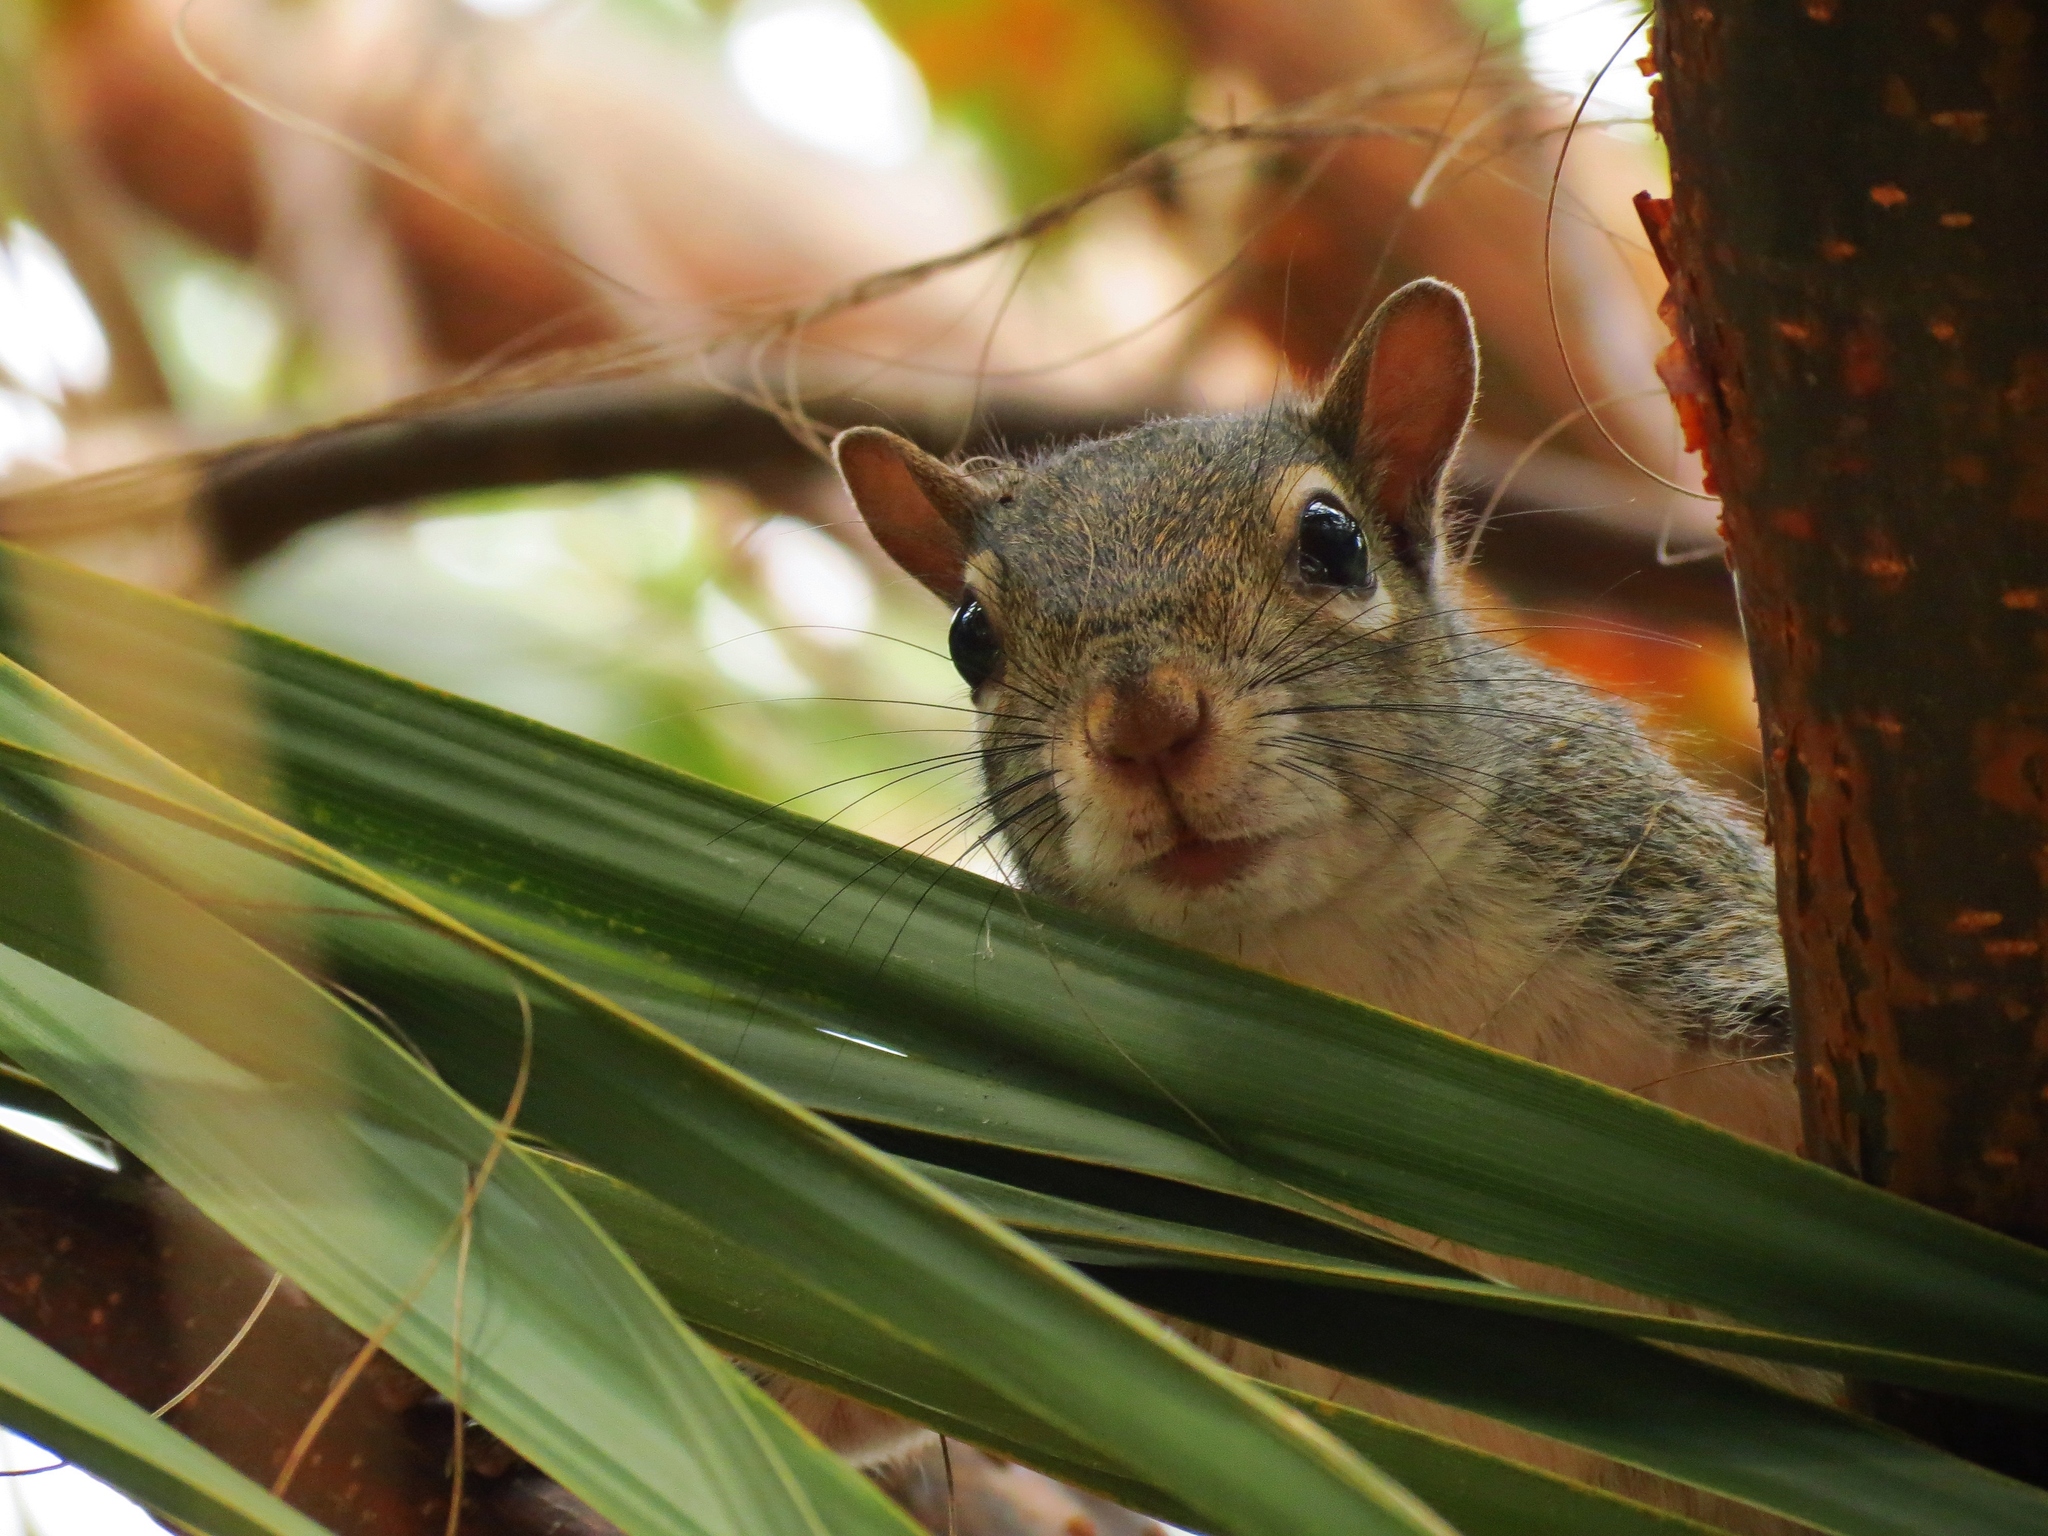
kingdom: Animalia
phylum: Chordata
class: Mammalia
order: Rodentia
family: Sciuridae
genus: Sciurus
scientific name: Sciurus carolinensis
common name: Eastern gray squirrel
